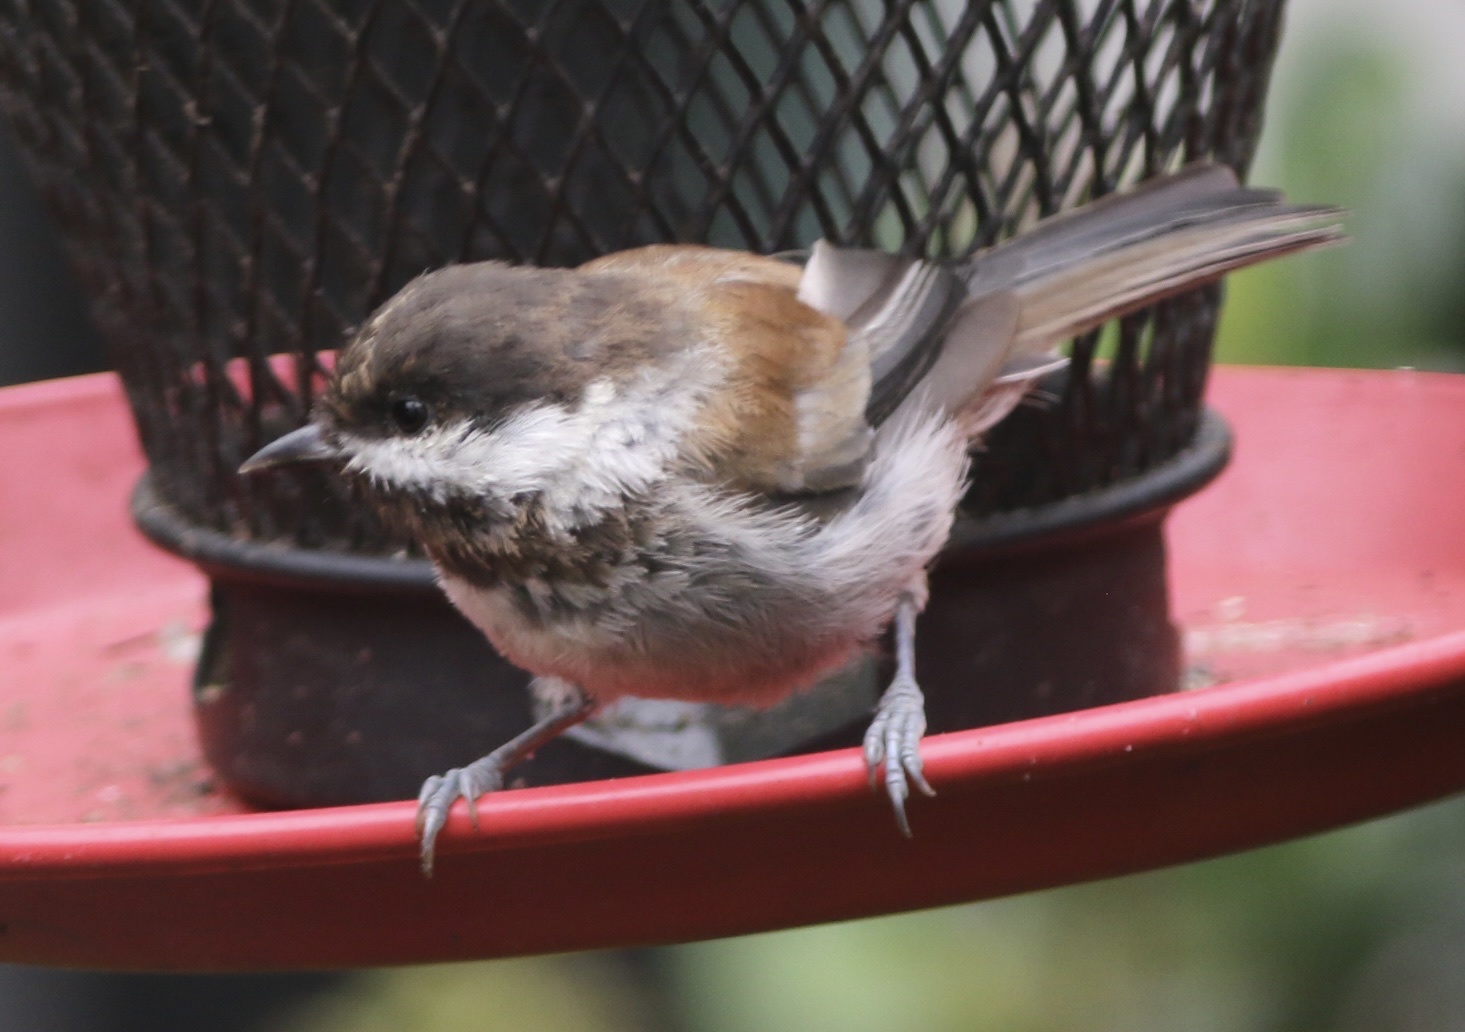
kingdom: Animalia
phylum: Chordata
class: Aves
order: Passeriformes
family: Paridae
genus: Poecile
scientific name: Poecile rufescens
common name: Chestnut-backed chickadee
